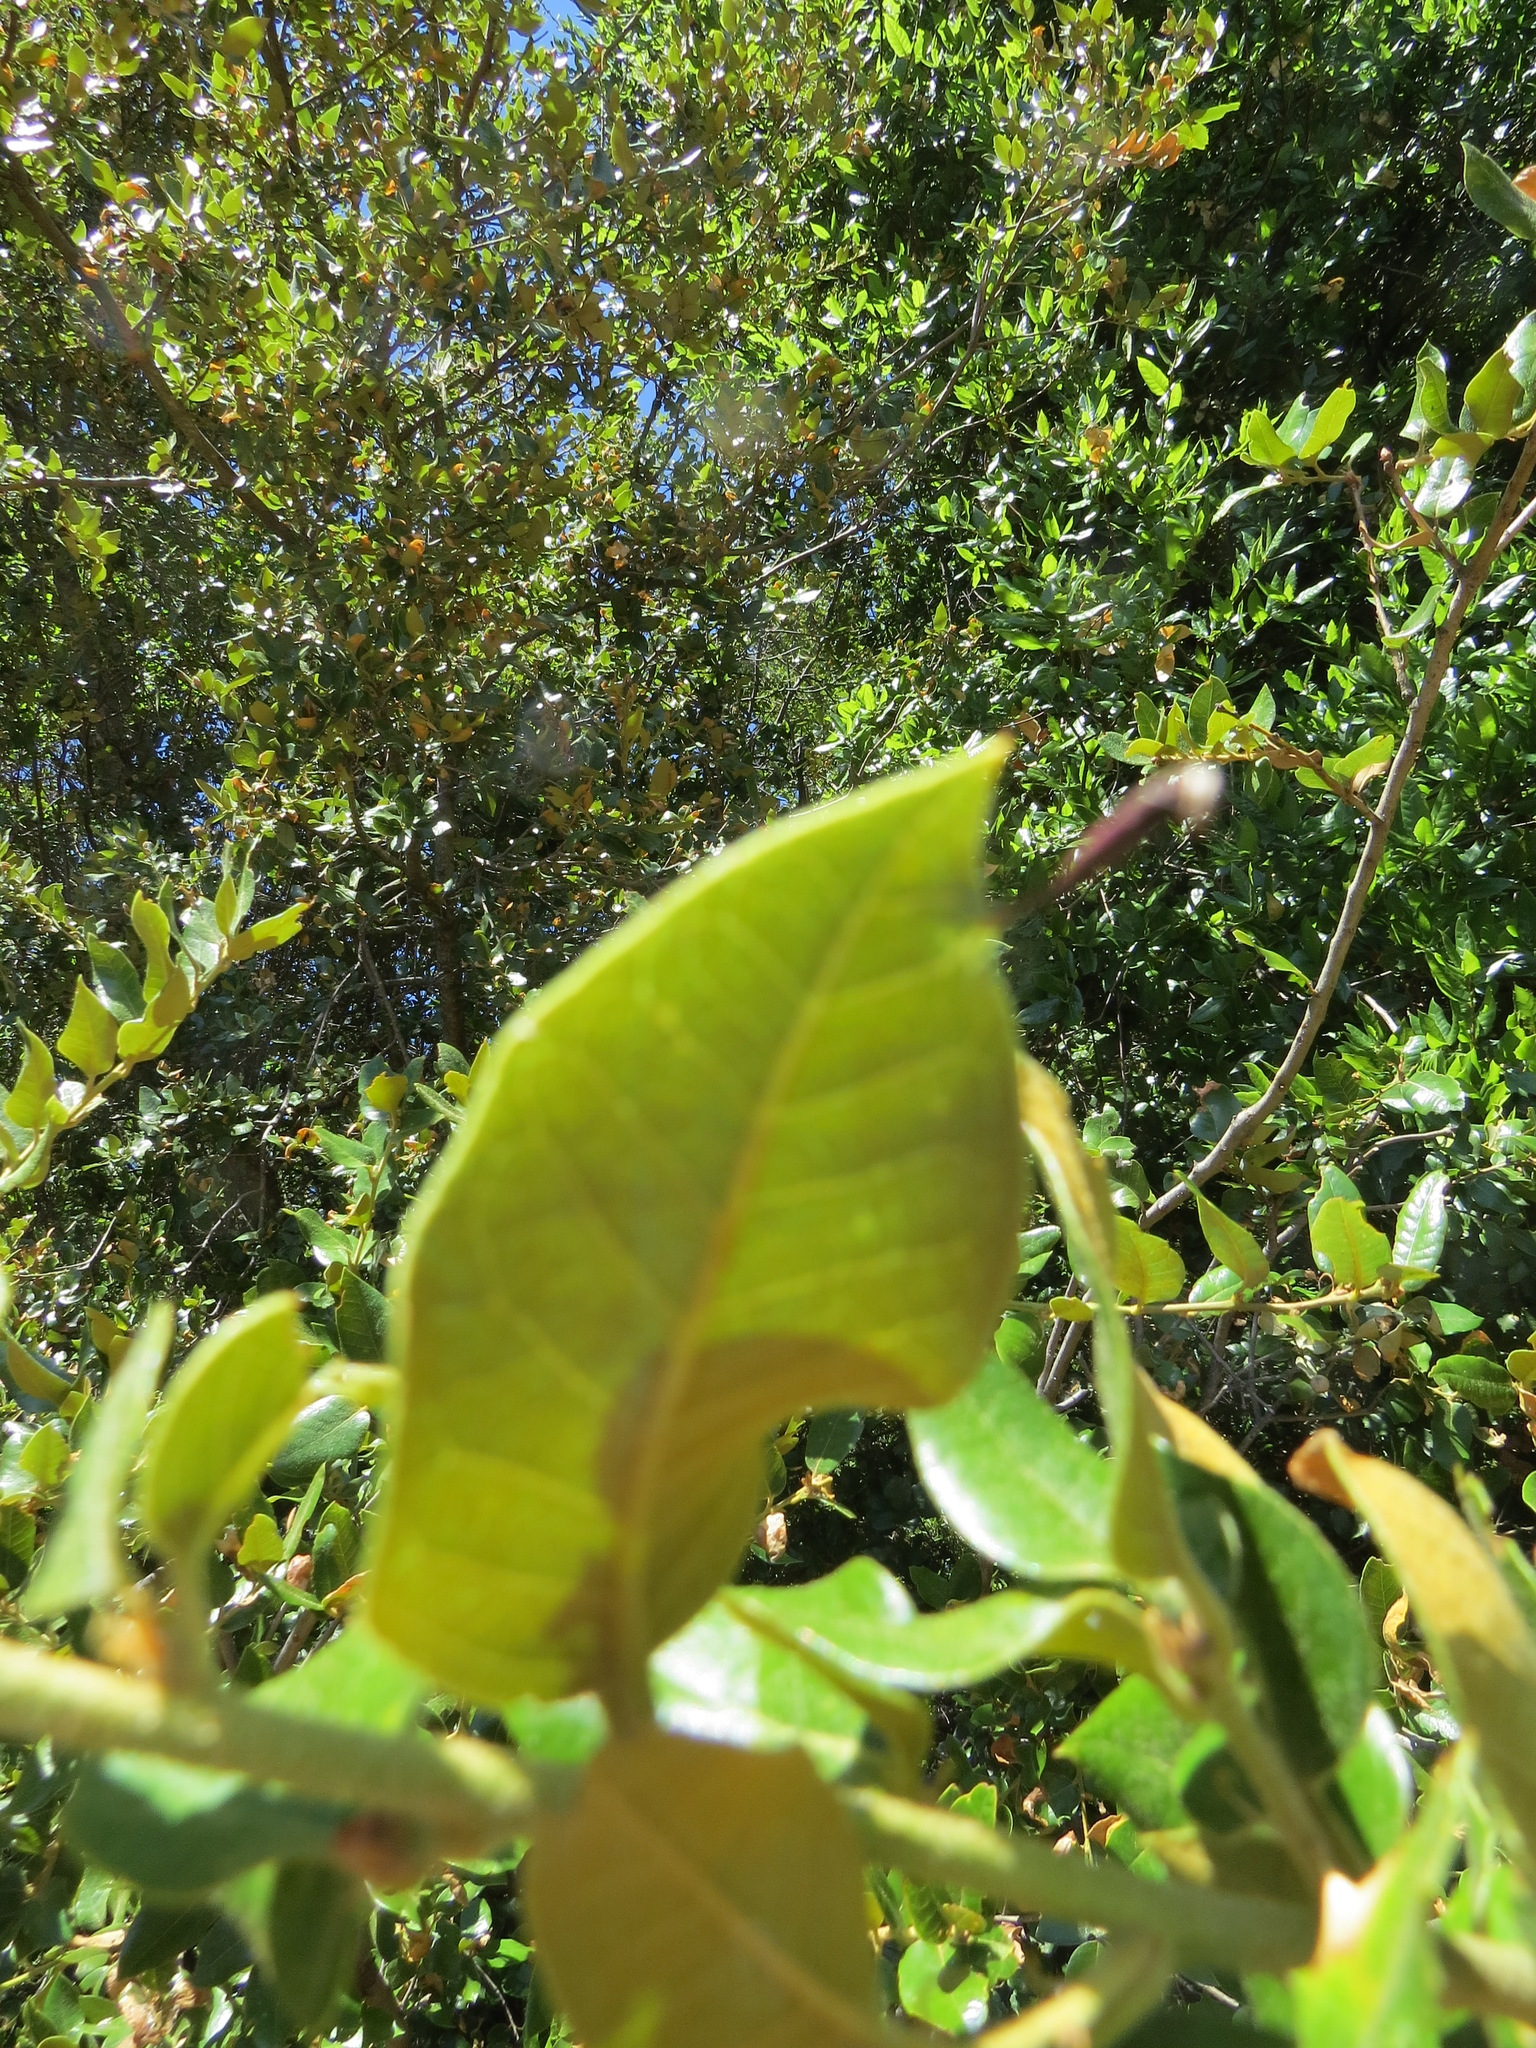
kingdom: Animalia
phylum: Arthropoda
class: Insecta
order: Hymenoptera
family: Cynipidae
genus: Heteroecus
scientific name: Heteroecus
